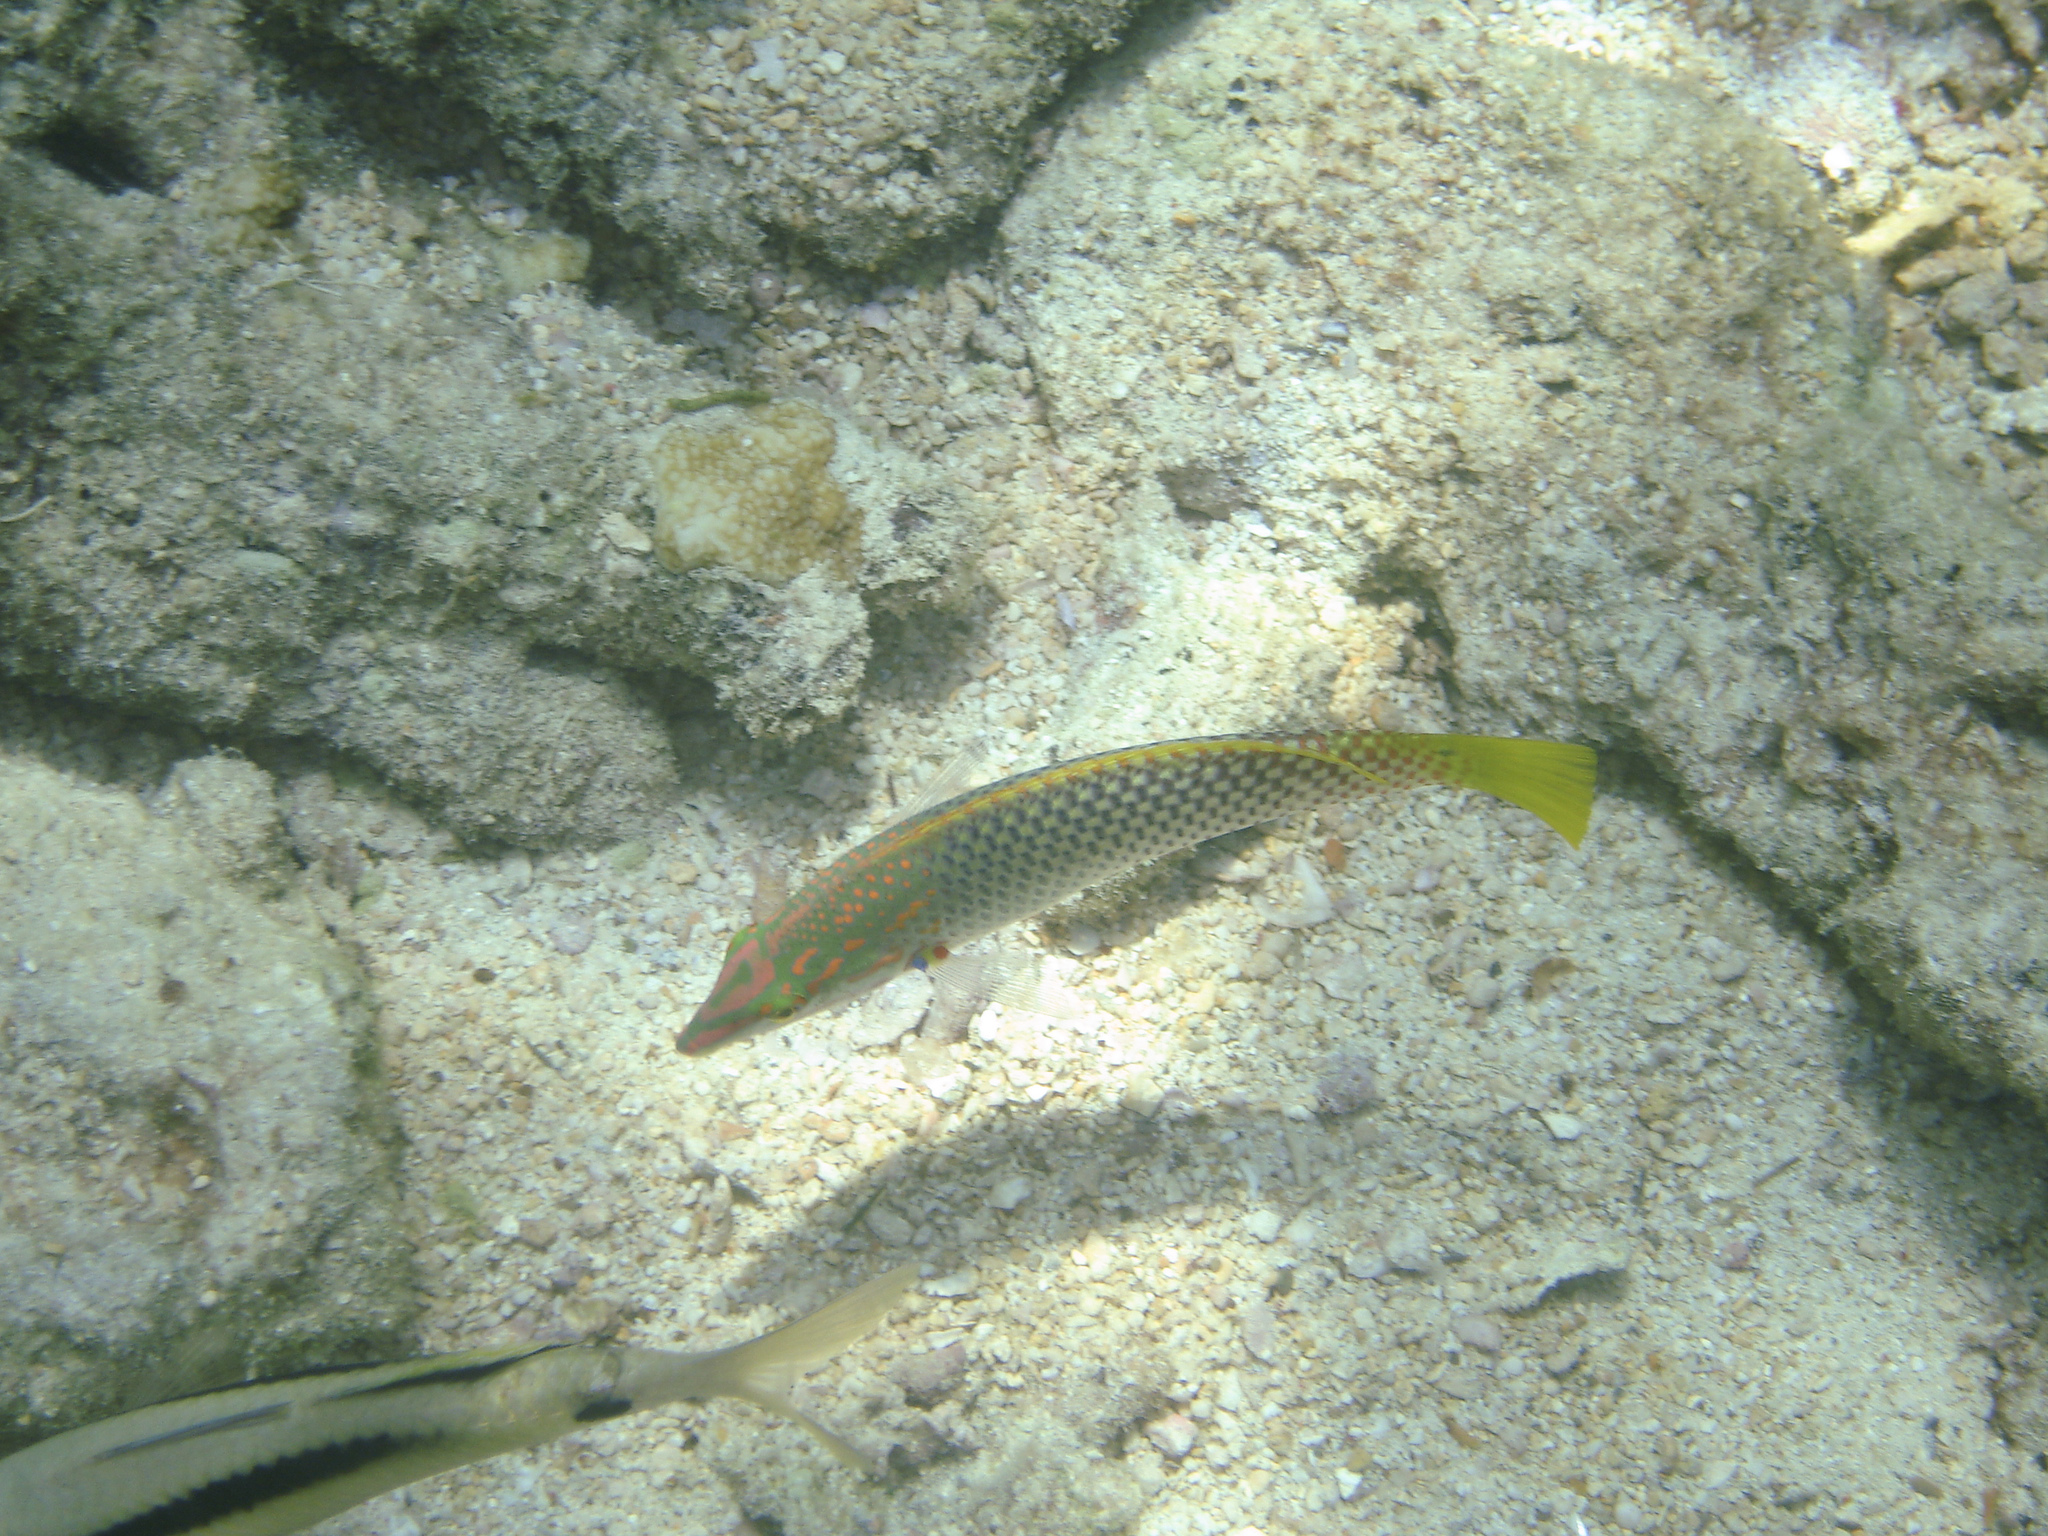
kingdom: Animalia
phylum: Chordata
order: Perciformes
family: Labridae
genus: Halichoeres
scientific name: Halichoeres hortulanus
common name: Checkerboard wrasse
